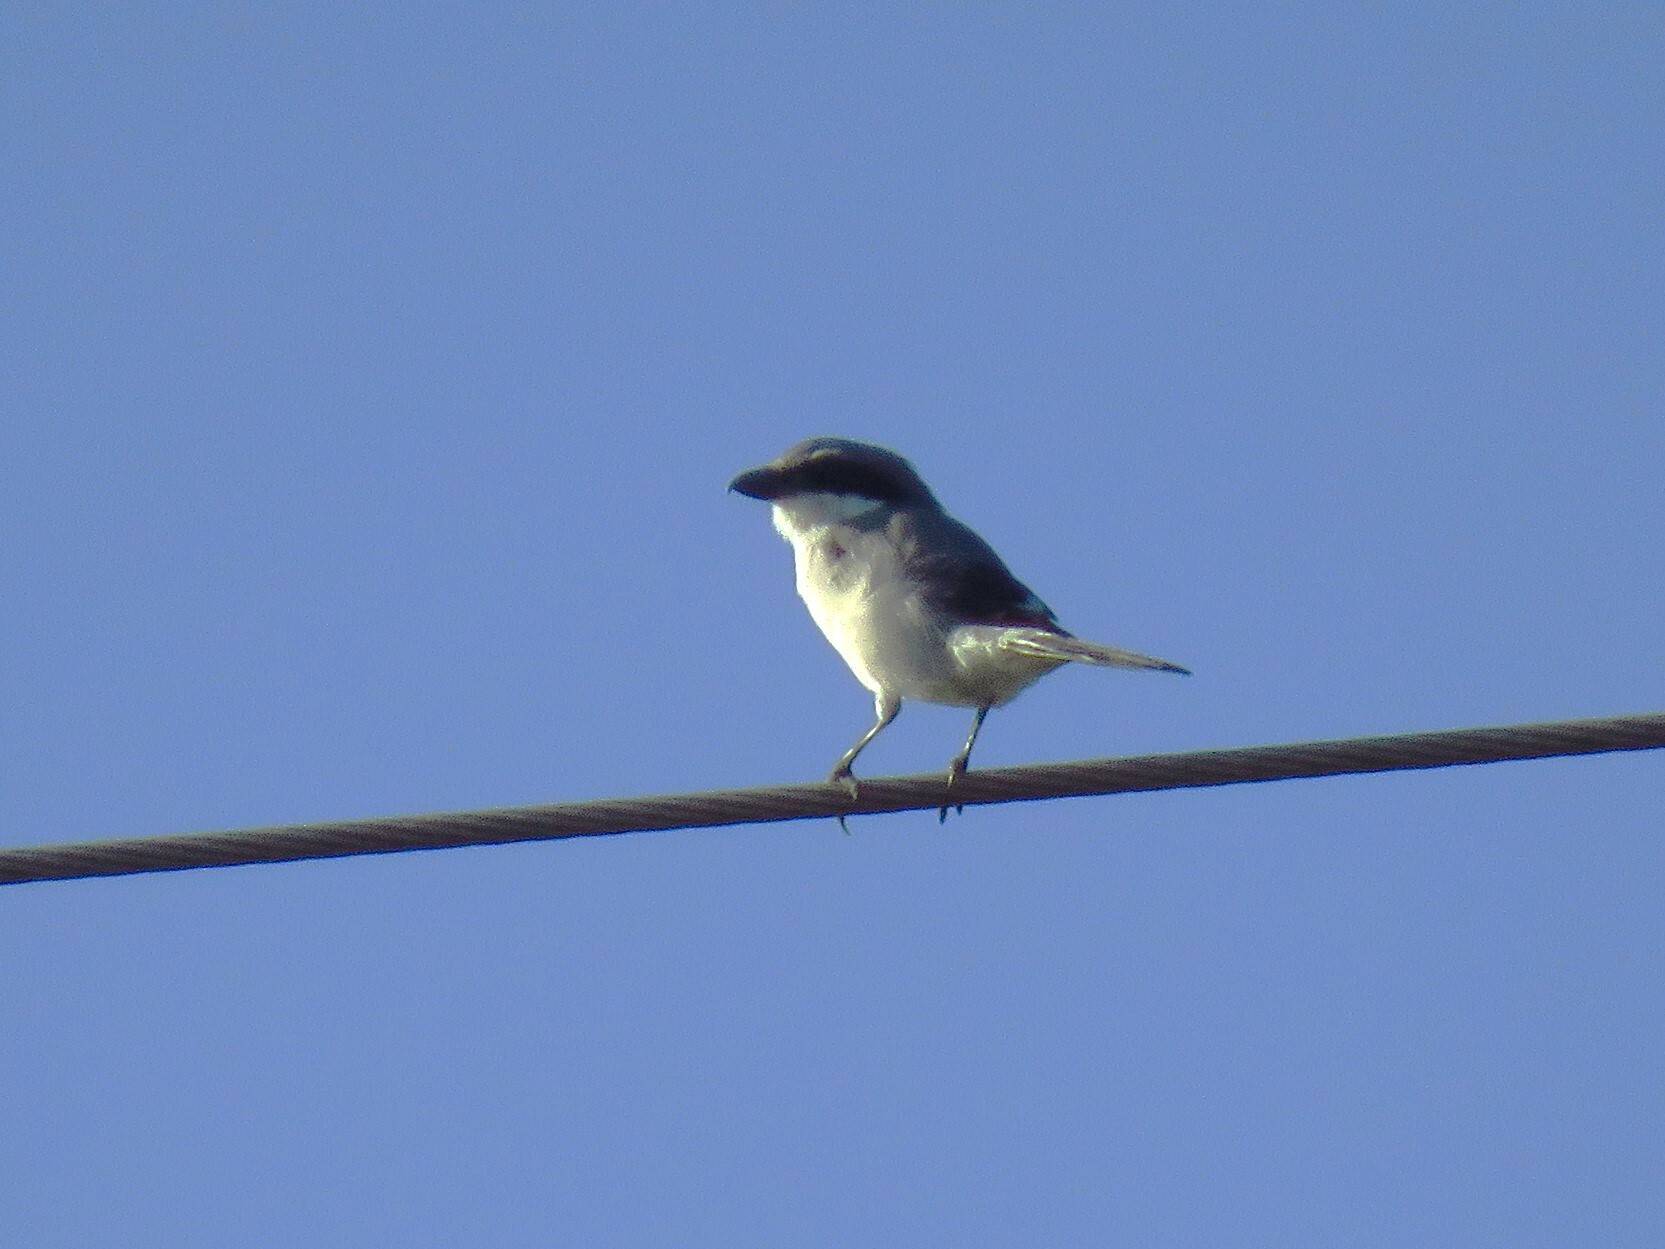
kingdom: Animalia
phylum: Chordata
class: Aves
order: Passeriformes
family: Laniidae
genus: Lanius
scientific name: Lanius ludovicianus
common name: Loggerhead shrike
